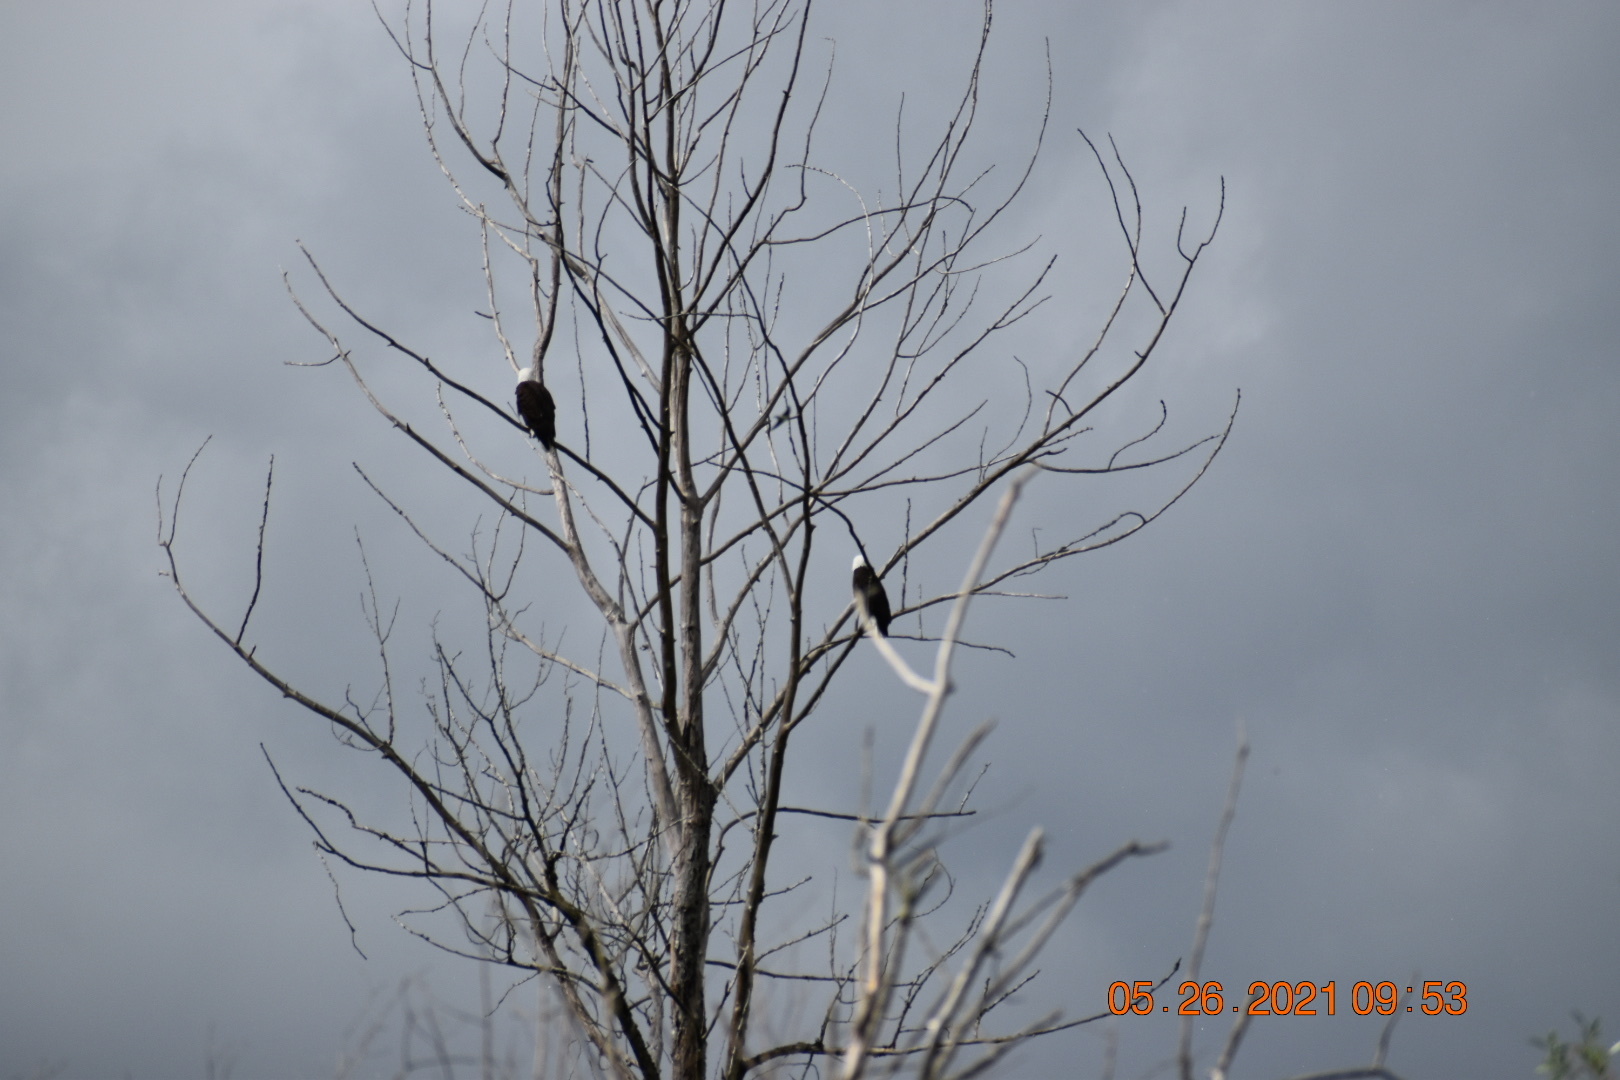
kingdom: Animalia
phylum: Chordata
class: Aves
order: Accipitriformes
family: Accipitridae
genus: Haliaeetus
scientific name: Haliaeetus leucocephalus
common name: Bald eagle
